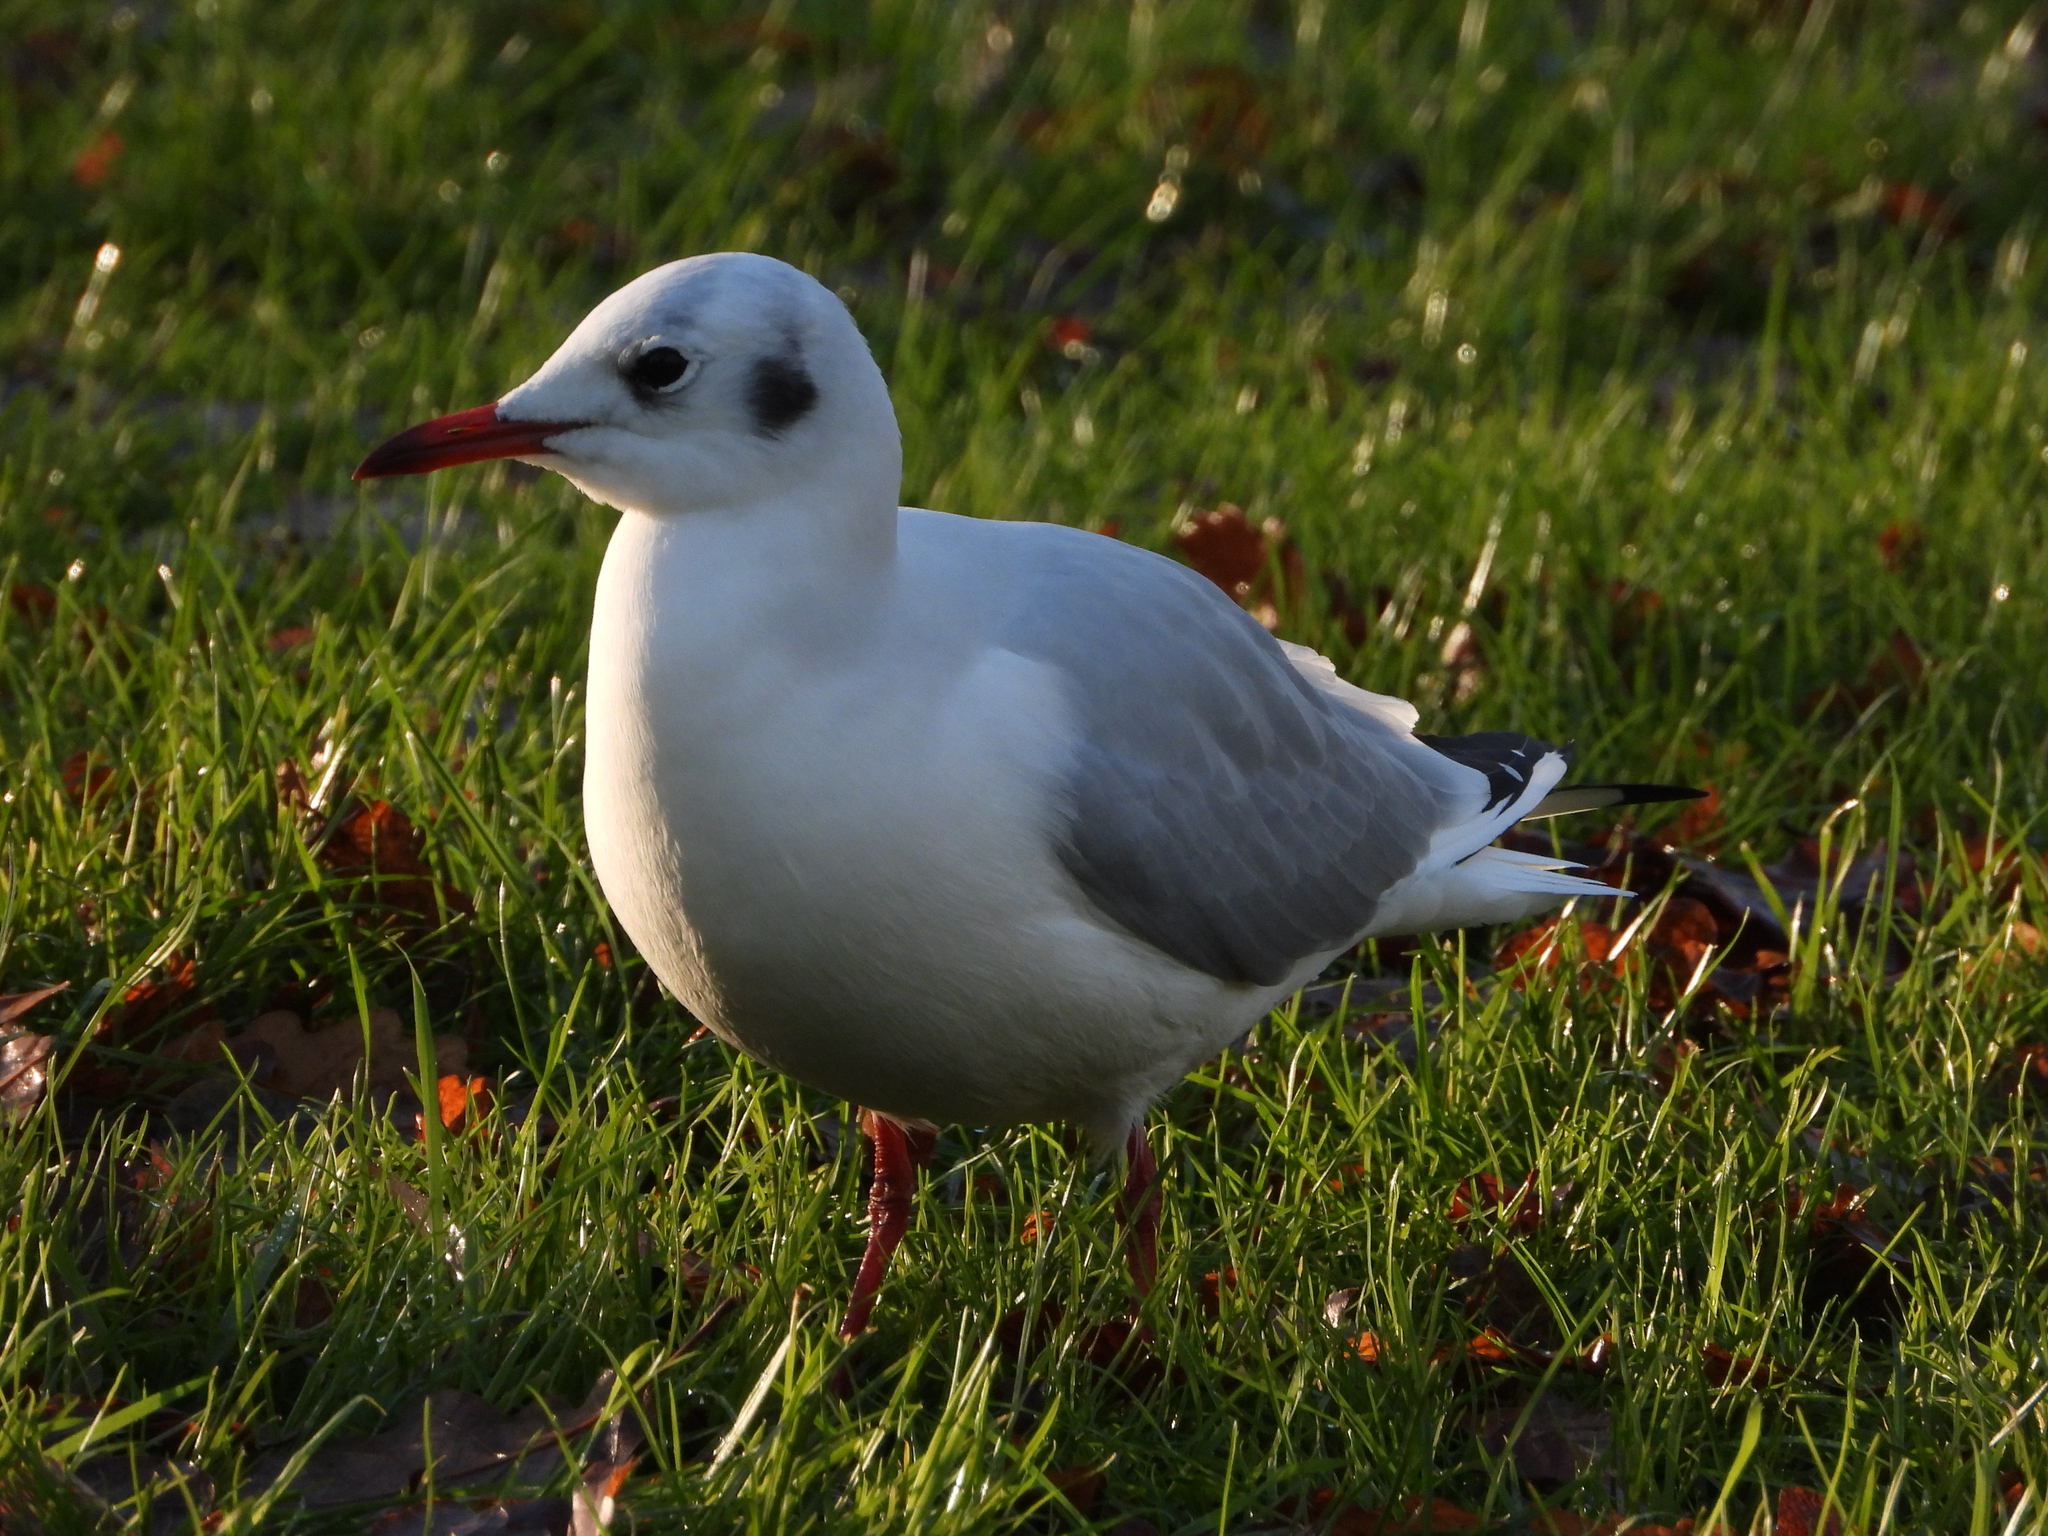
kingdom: Animalia
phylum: Chordata
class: Aves
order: Charadriiformes
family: Laridae
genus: Chroicocephalus
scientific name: Chroicocephalus ridibundus
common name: Black-headed gull
